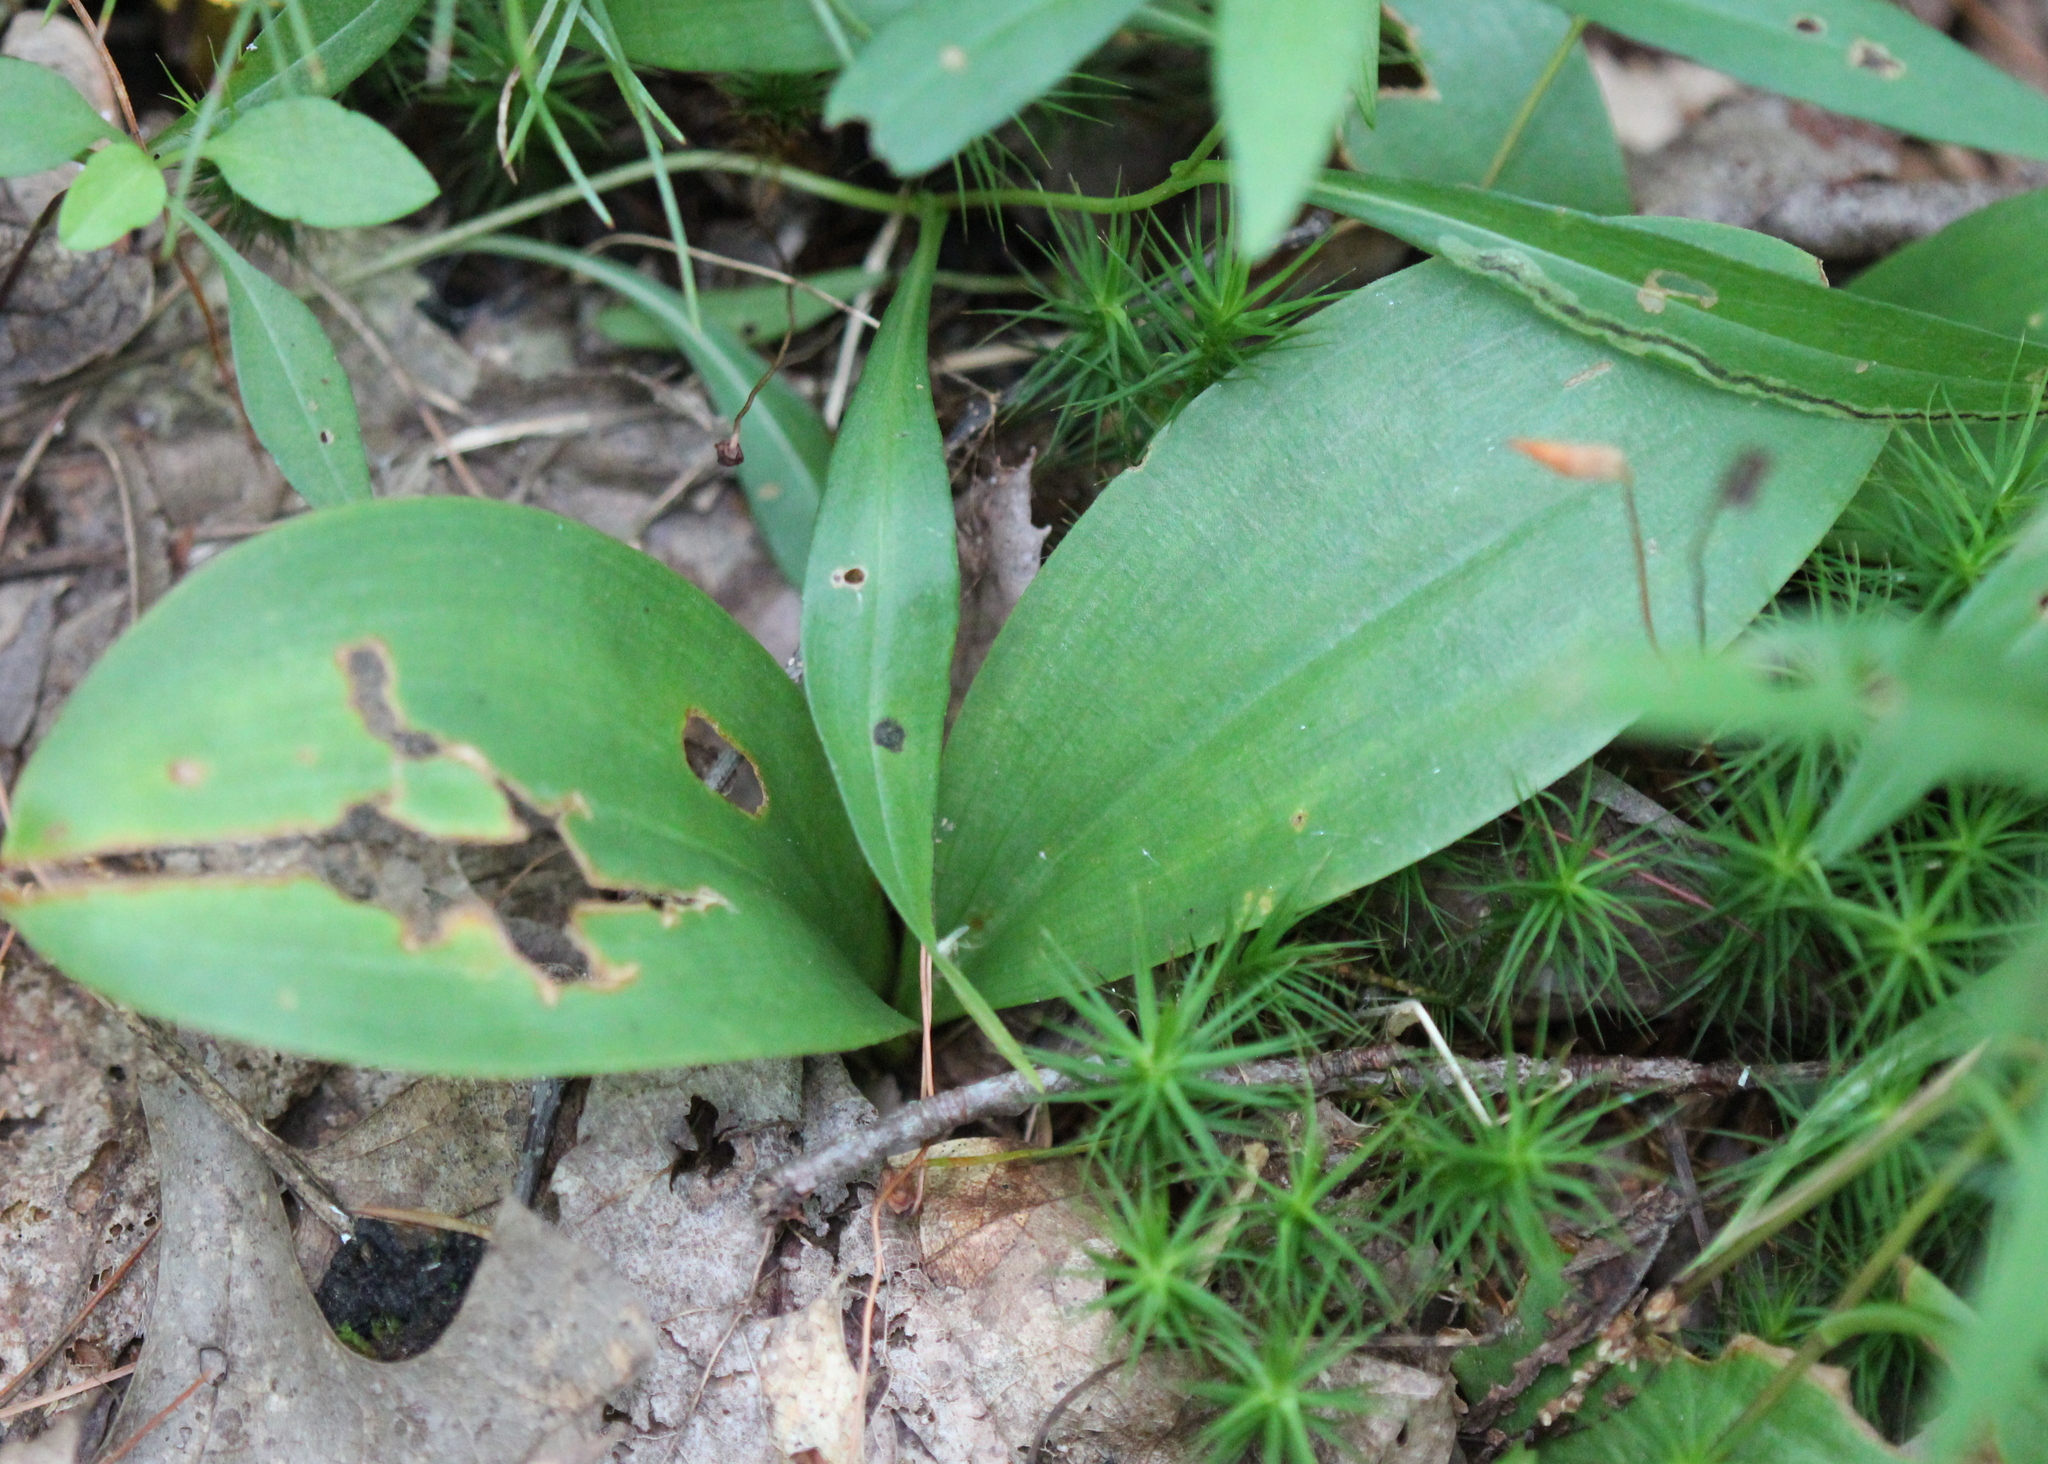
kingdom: Plantae
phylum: Tracheophyta
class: Liliopsida
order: Liliales
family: Liliaceae
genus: Clintonia
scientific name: Clintonia borealis
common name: Yellow clintonia
